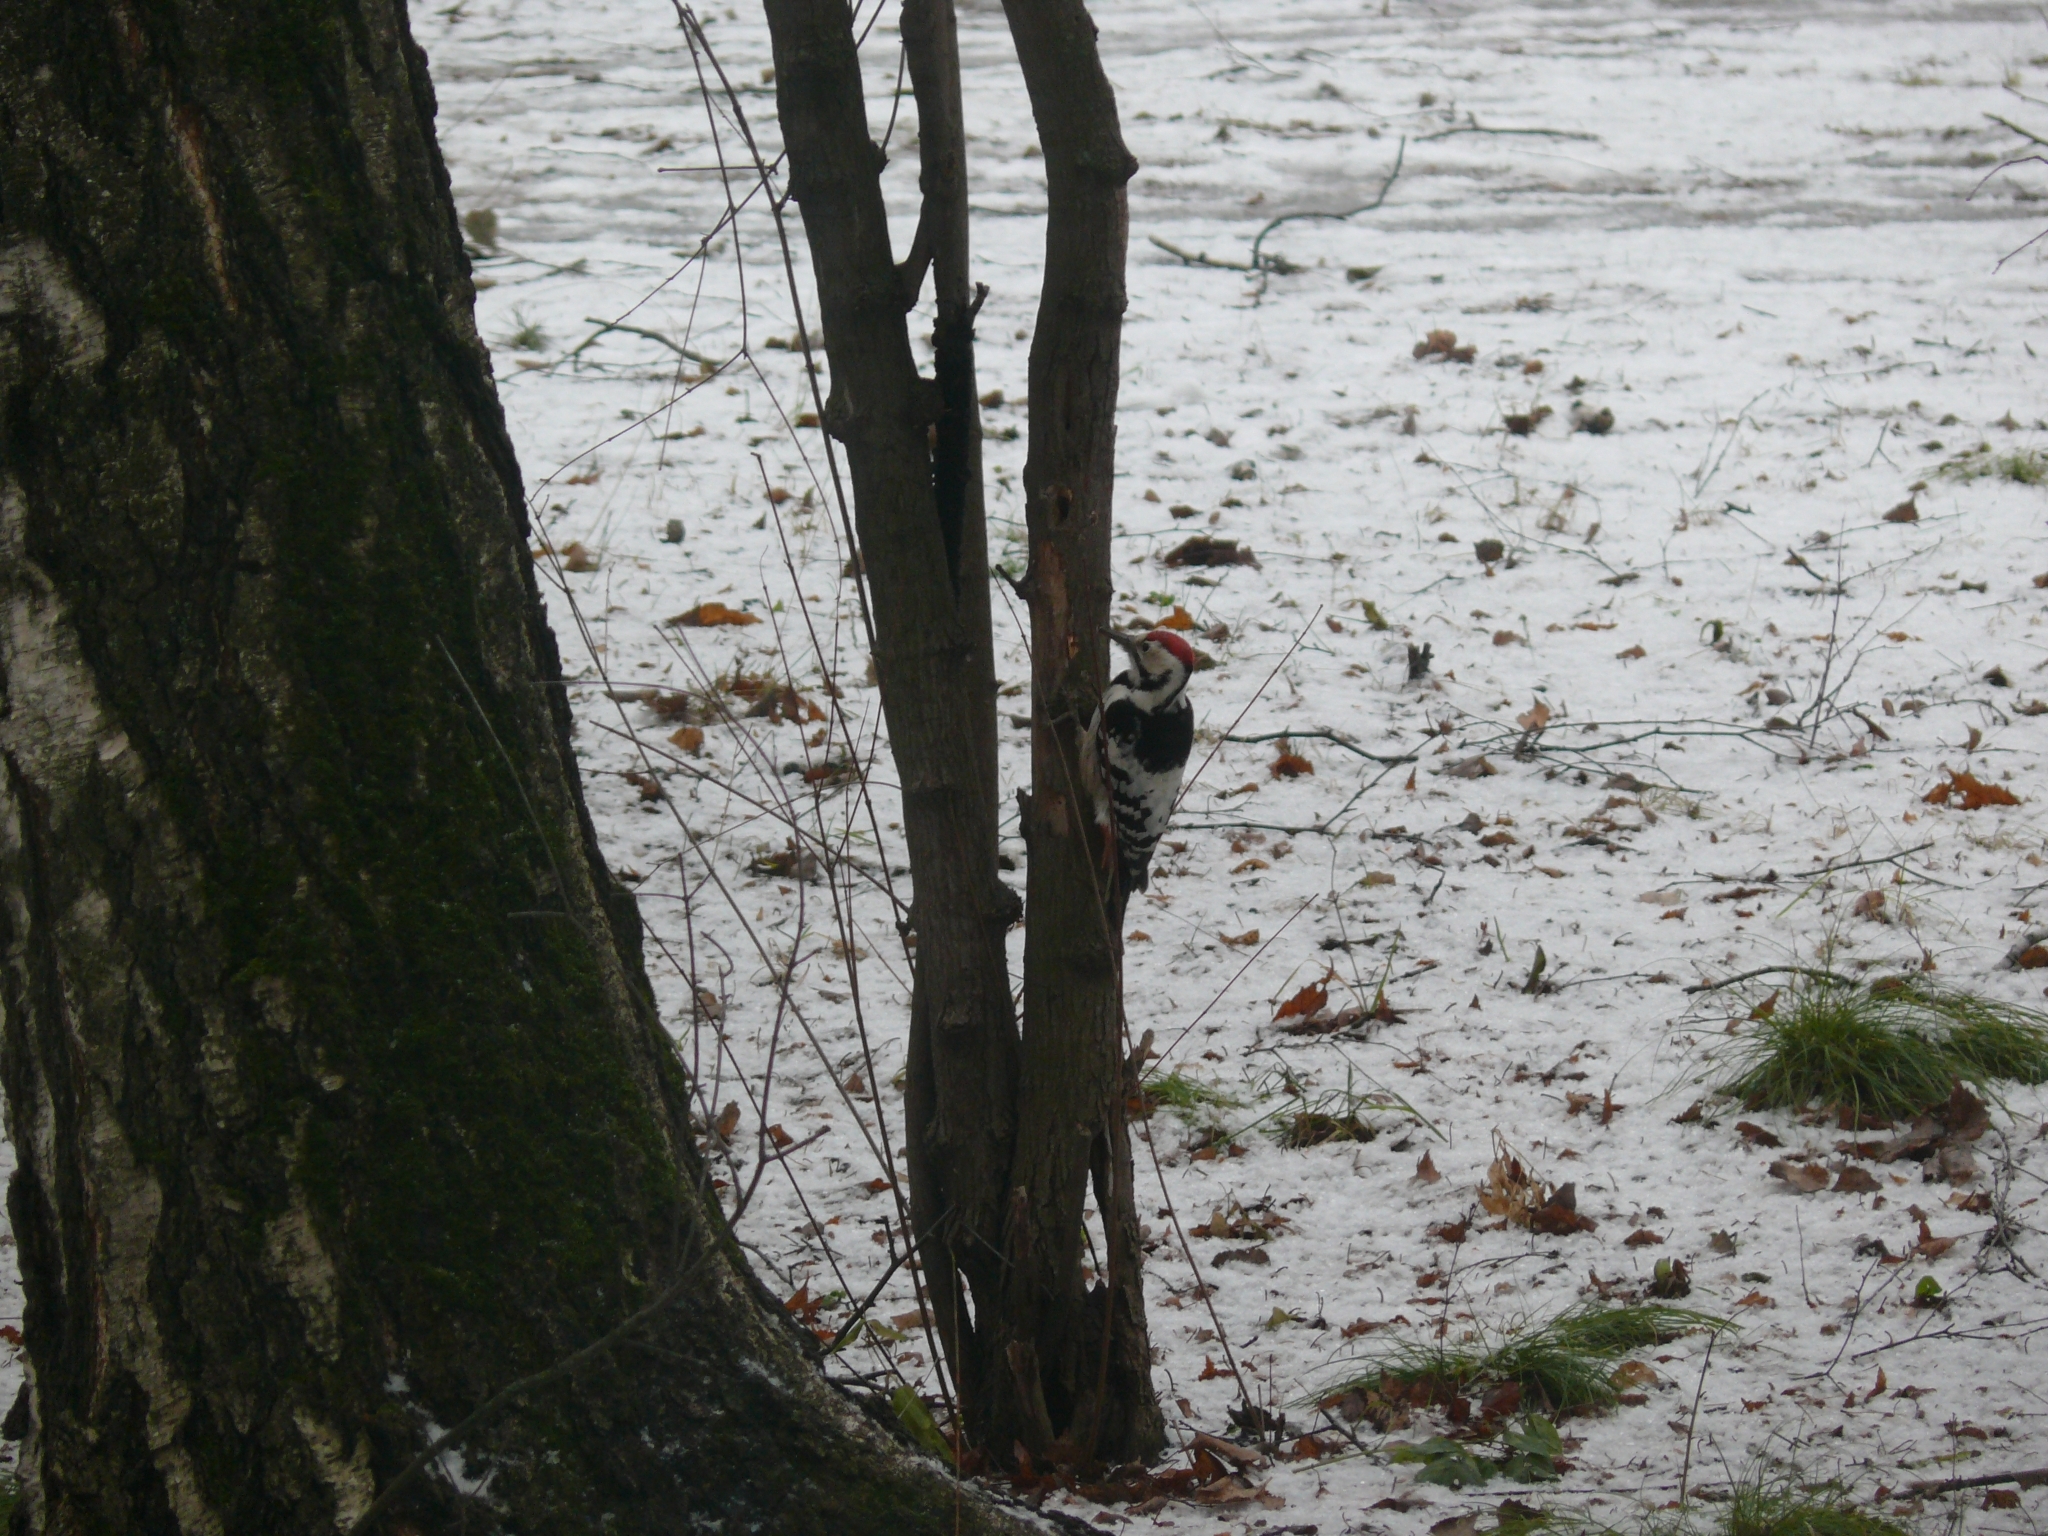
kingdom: Animalia
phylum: Chordata
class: Aves
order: Piciformes
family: Picidae
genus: Dendrocopos
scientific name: Dendrocopos leucotos
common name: White-backed woodpecker
